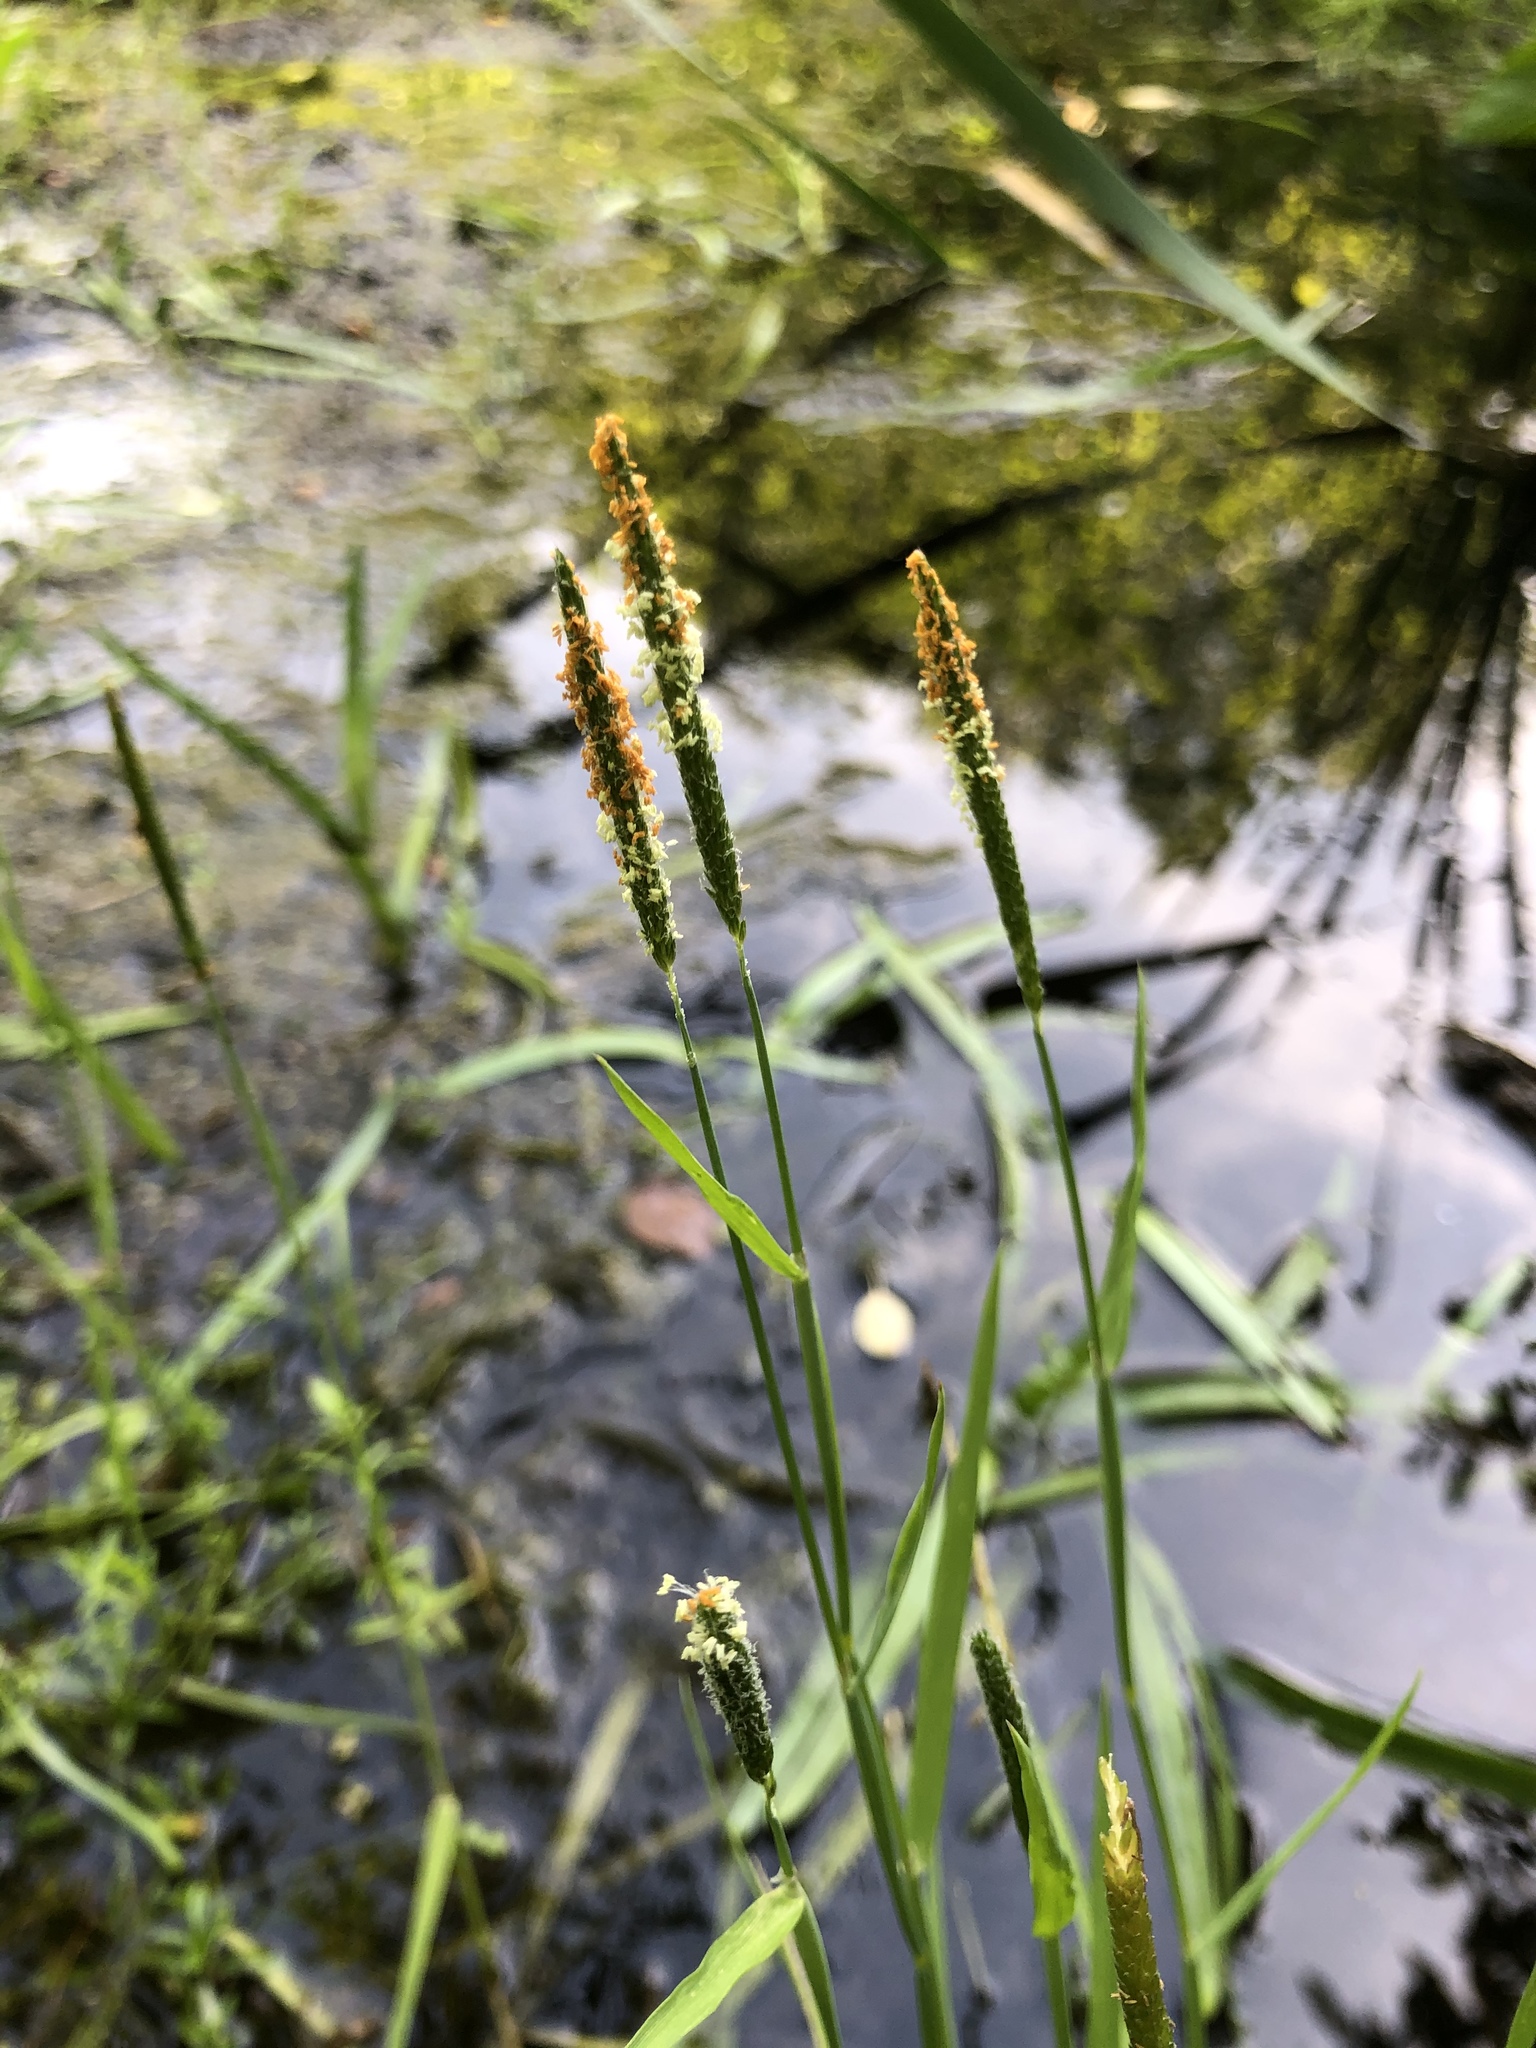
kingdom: Plantae
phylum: Tracheophyta
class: Liliopsida
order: Poales
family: Poaceae
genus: Alopecurus
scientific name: Alopecurus aequalis
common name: Orange foxtail
